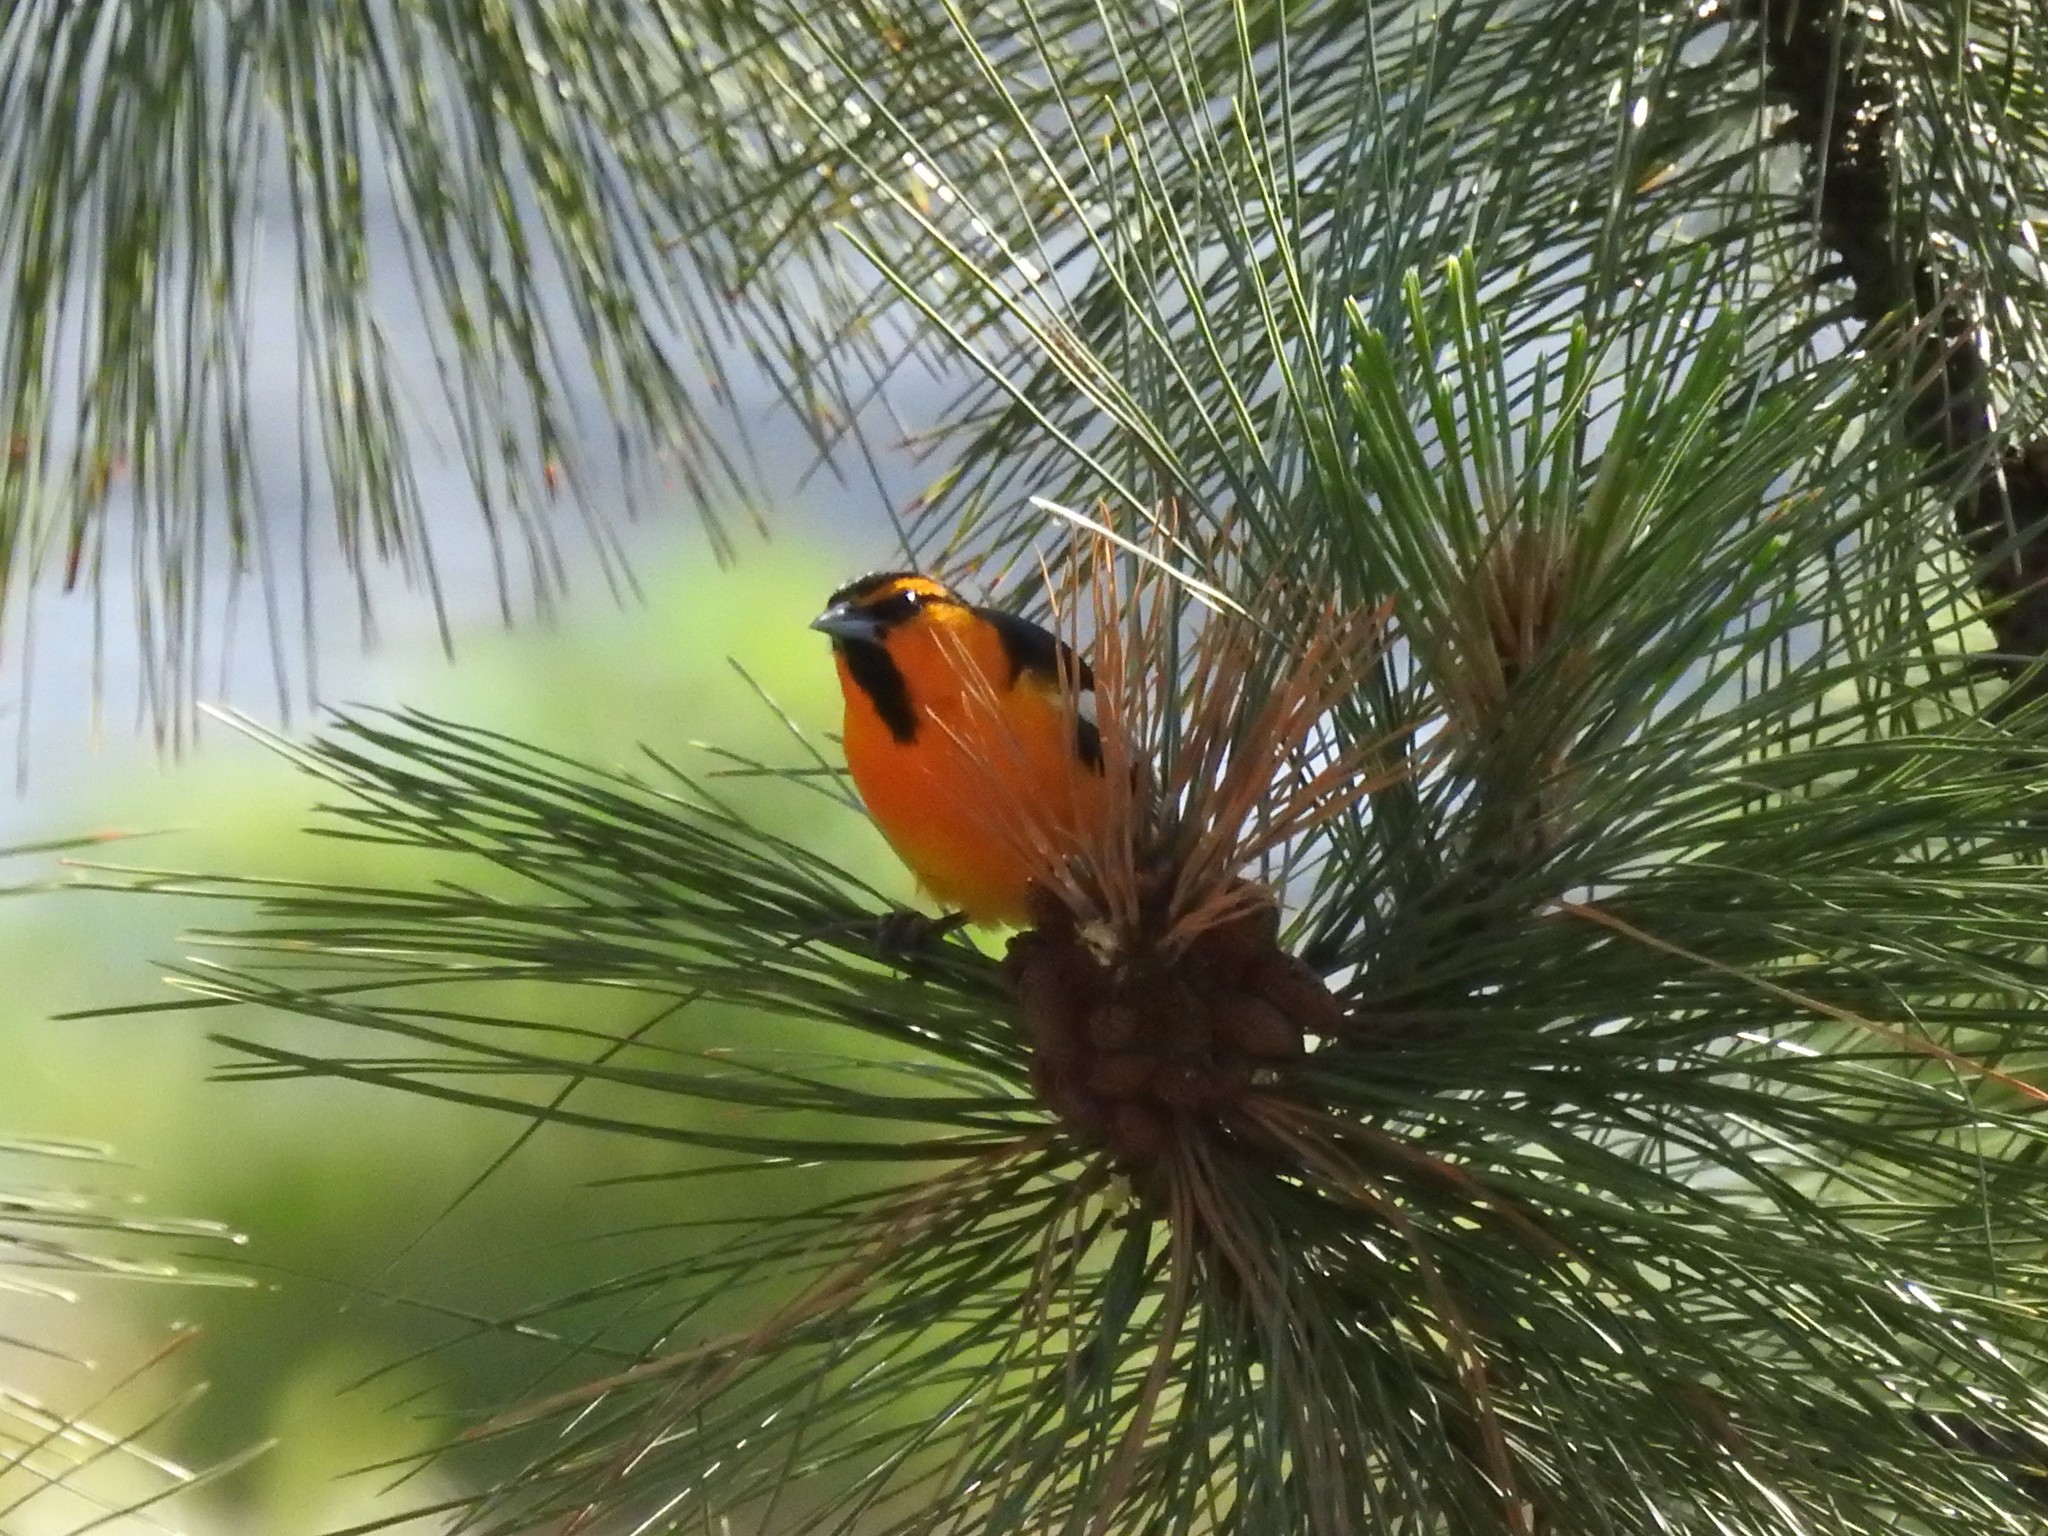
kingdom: Animalia
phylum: Chordata
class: Aves
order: Passeriformes
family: Icteridae
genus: Icterus
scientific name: Icterus bullockii
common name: Bullock's oriole
